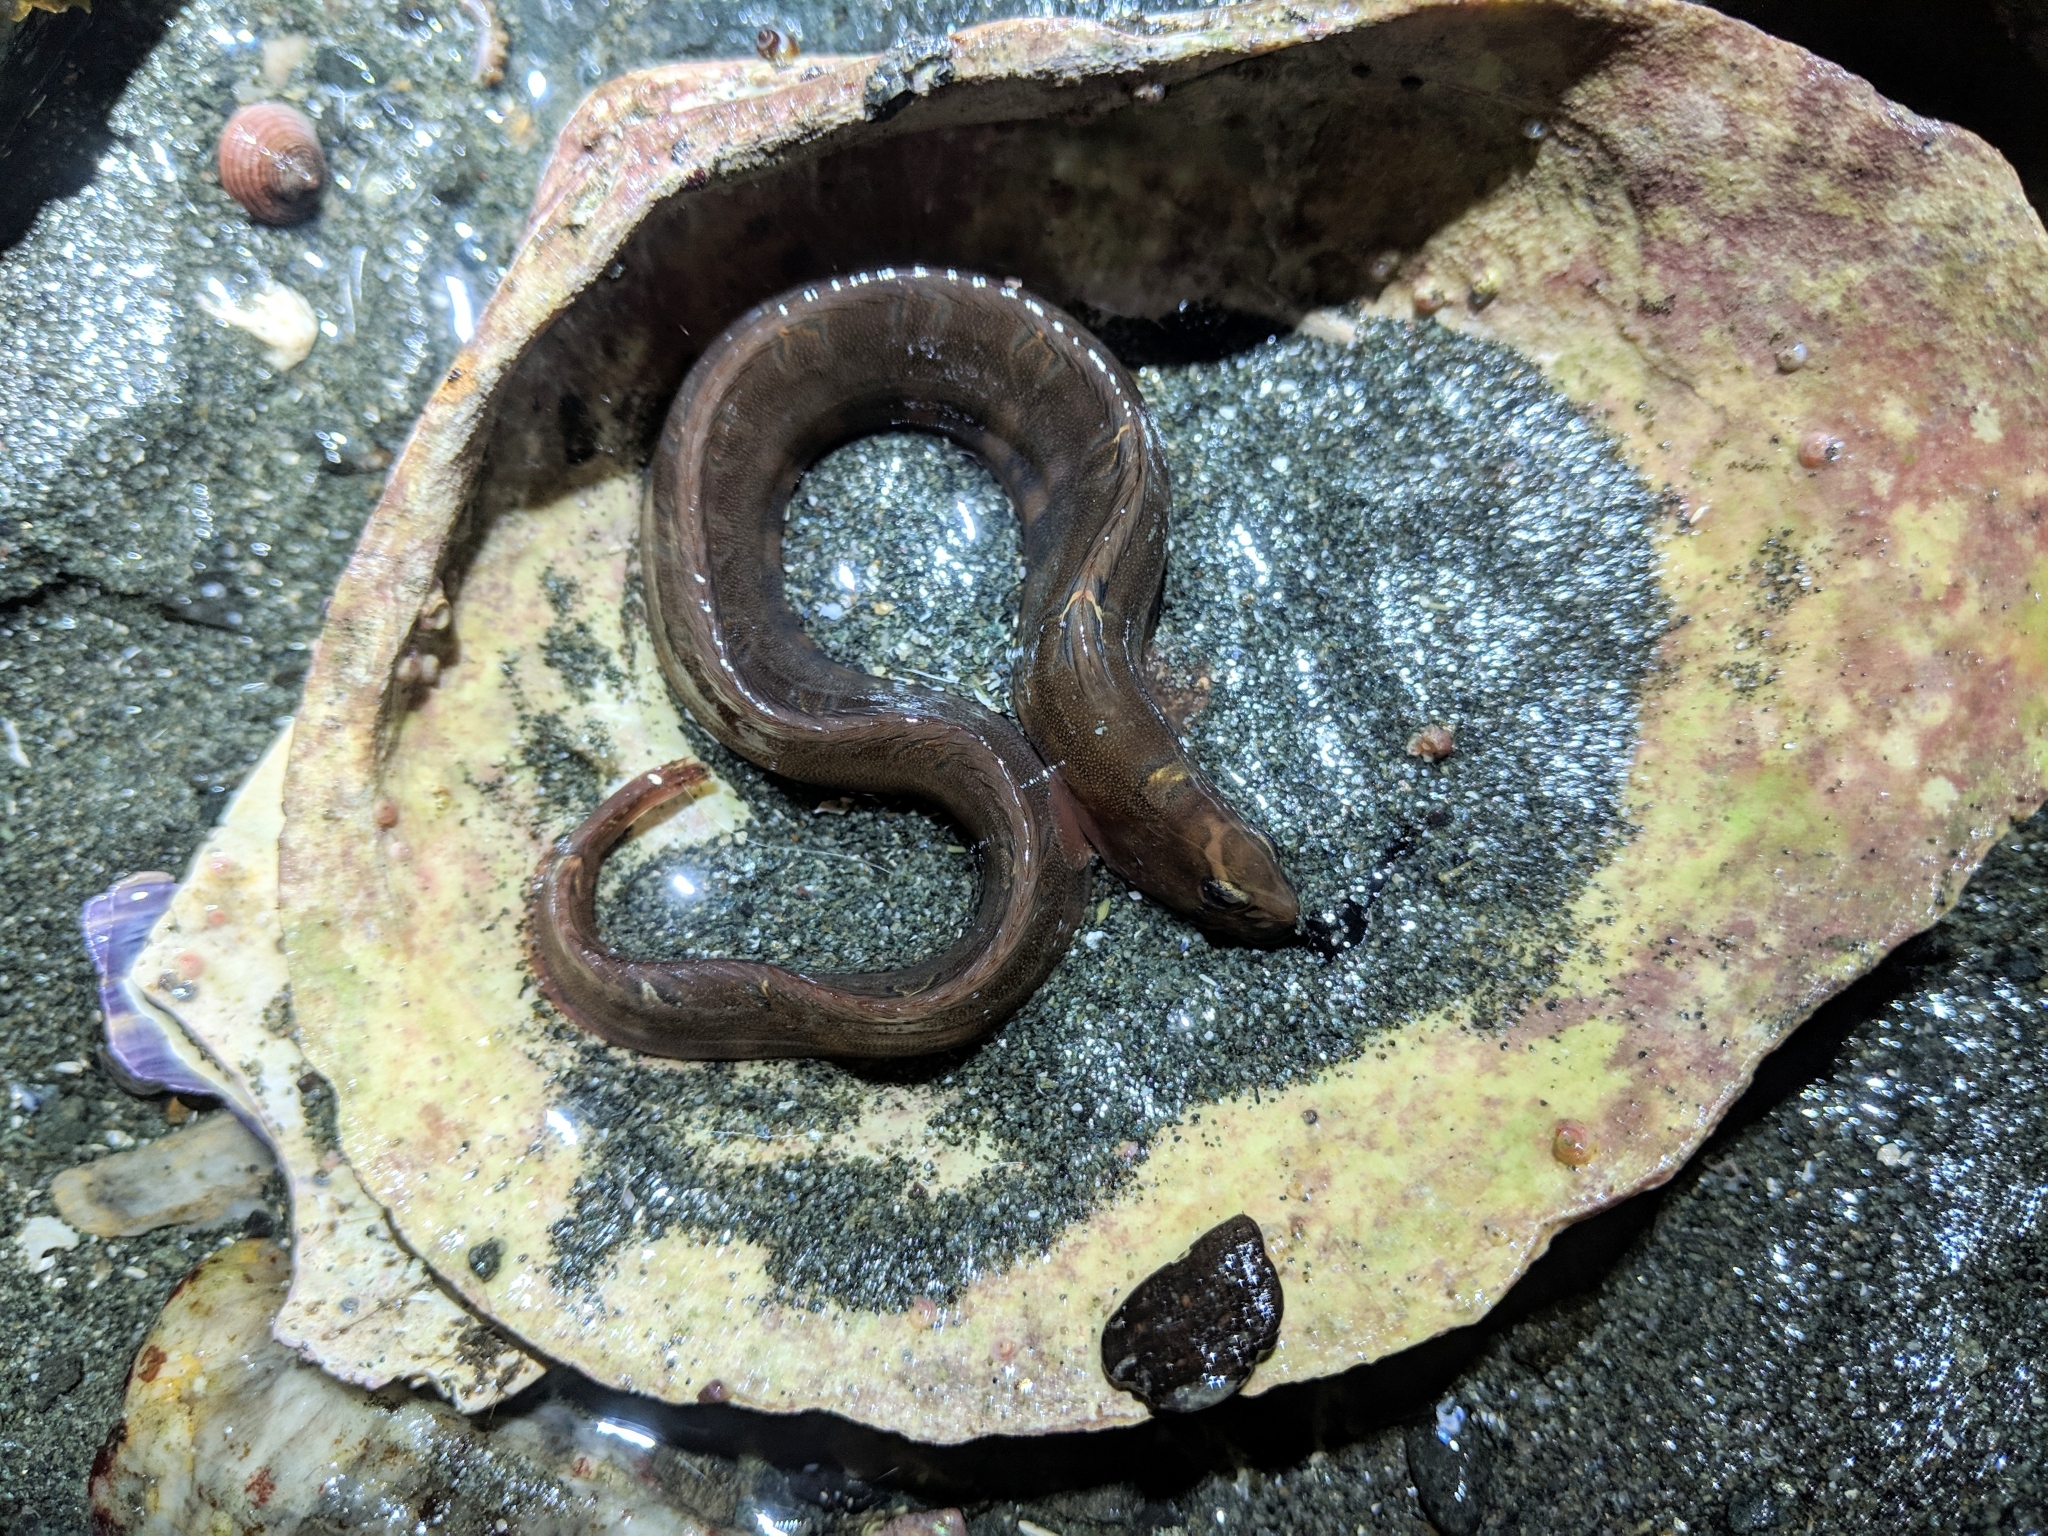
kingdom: Animalia
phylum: Chordata
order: Perciformes
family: Pholidae
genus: Pholis
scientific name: Pholis laeta
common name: Crescent gunnel
